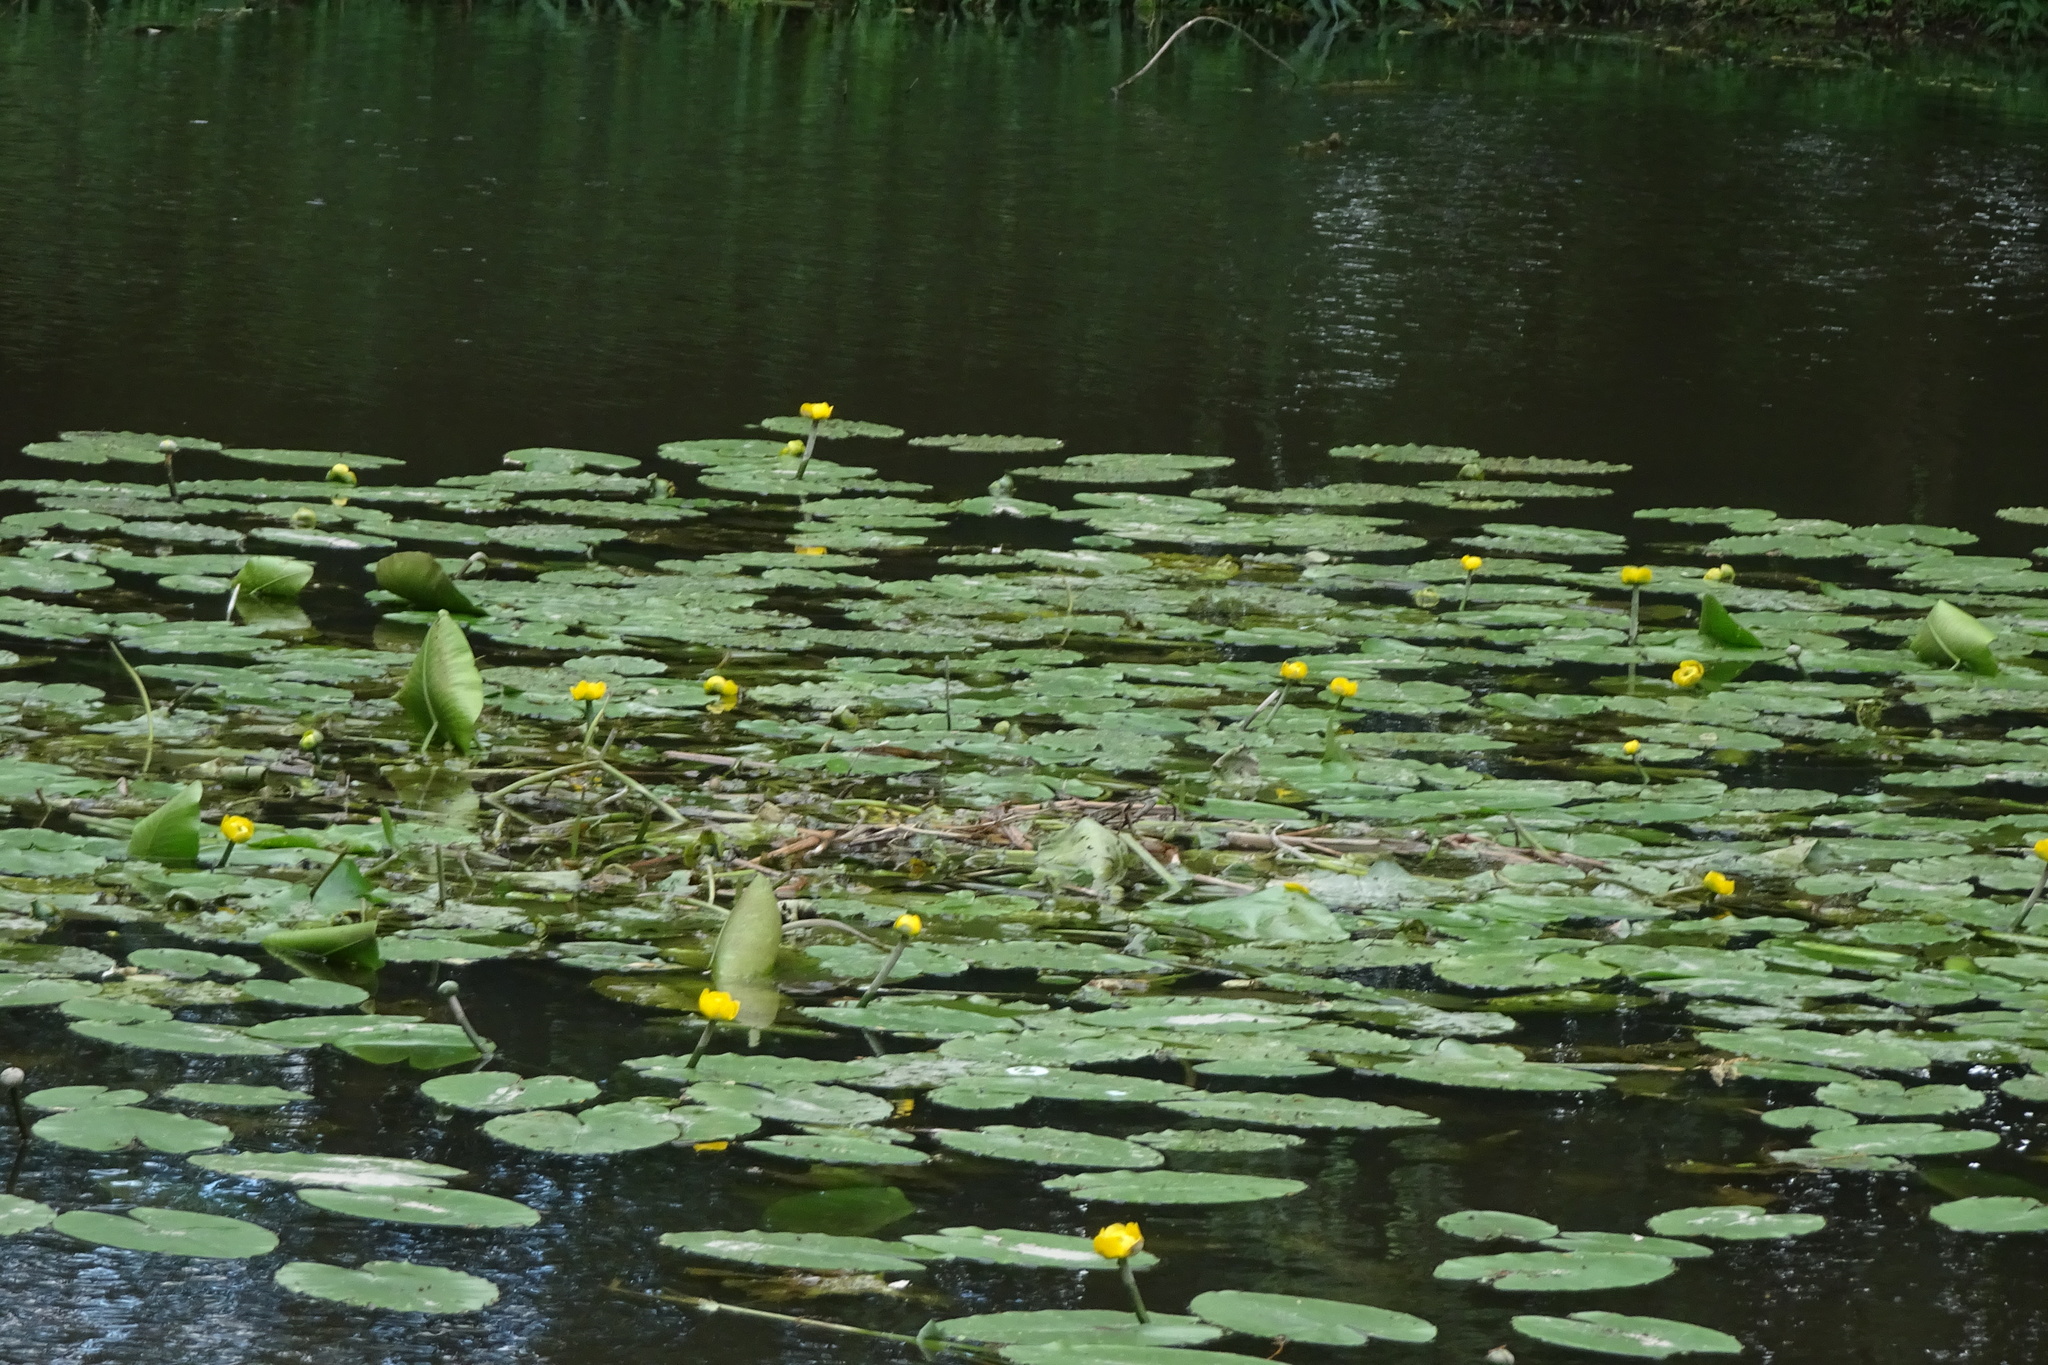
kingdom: Plantae
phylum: Tracheophyta
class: Magnoliopsida
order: Nymphaeales
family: Nymphaeaceae
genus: Nuphar
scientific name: Nuphar lutea
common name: Yellow water-lily
